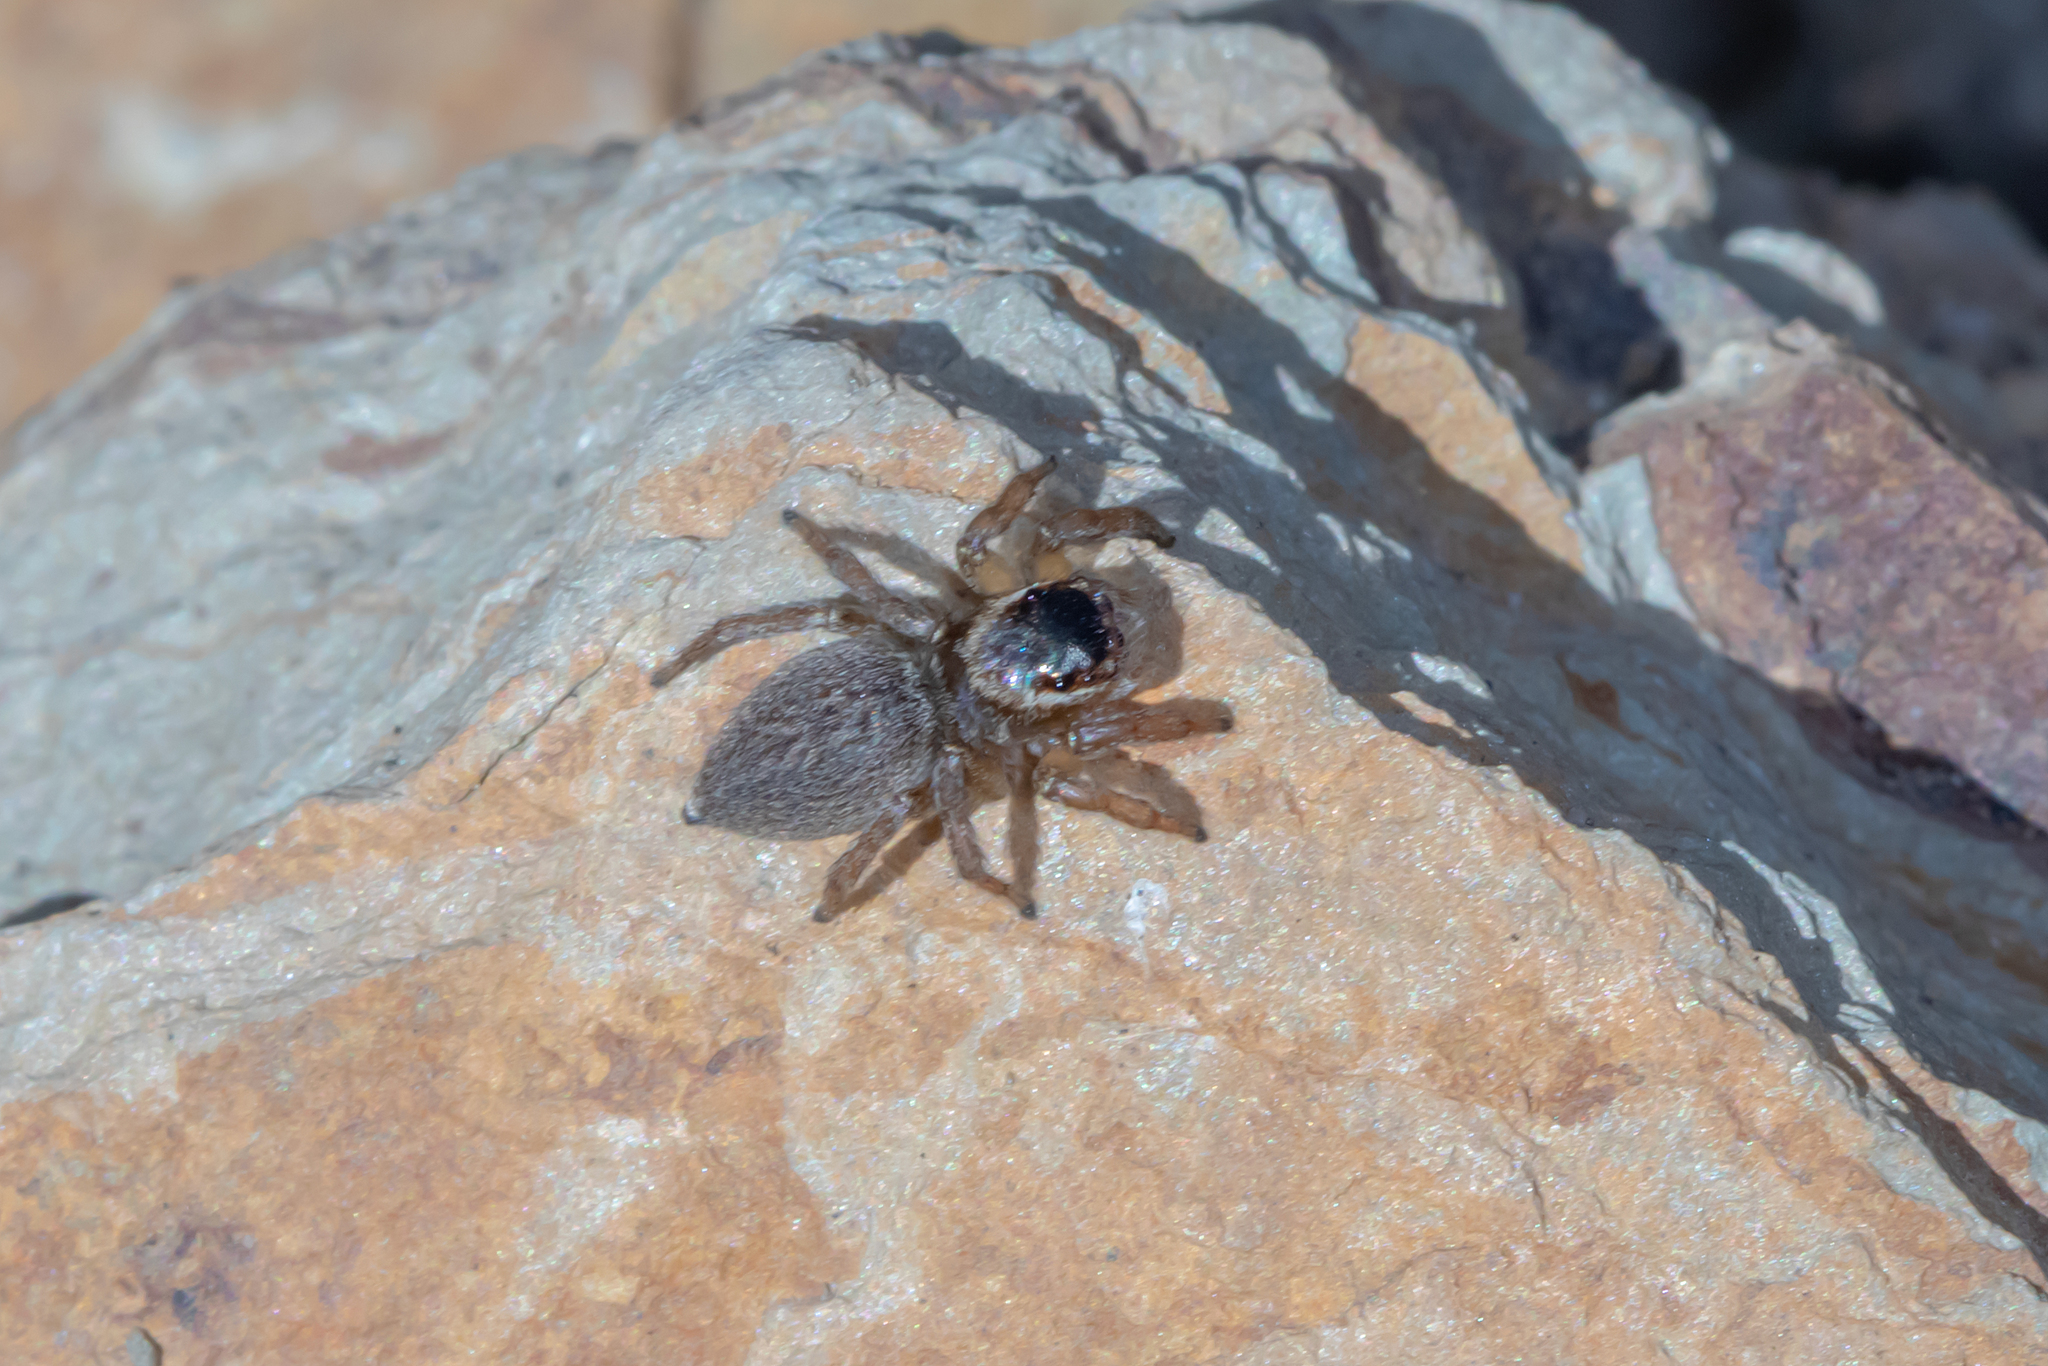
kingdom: Animalia
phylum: Arthropoda
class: Arachnida
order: Araneae
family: Salticidae
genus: Maratus
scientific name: Maratus griseus
